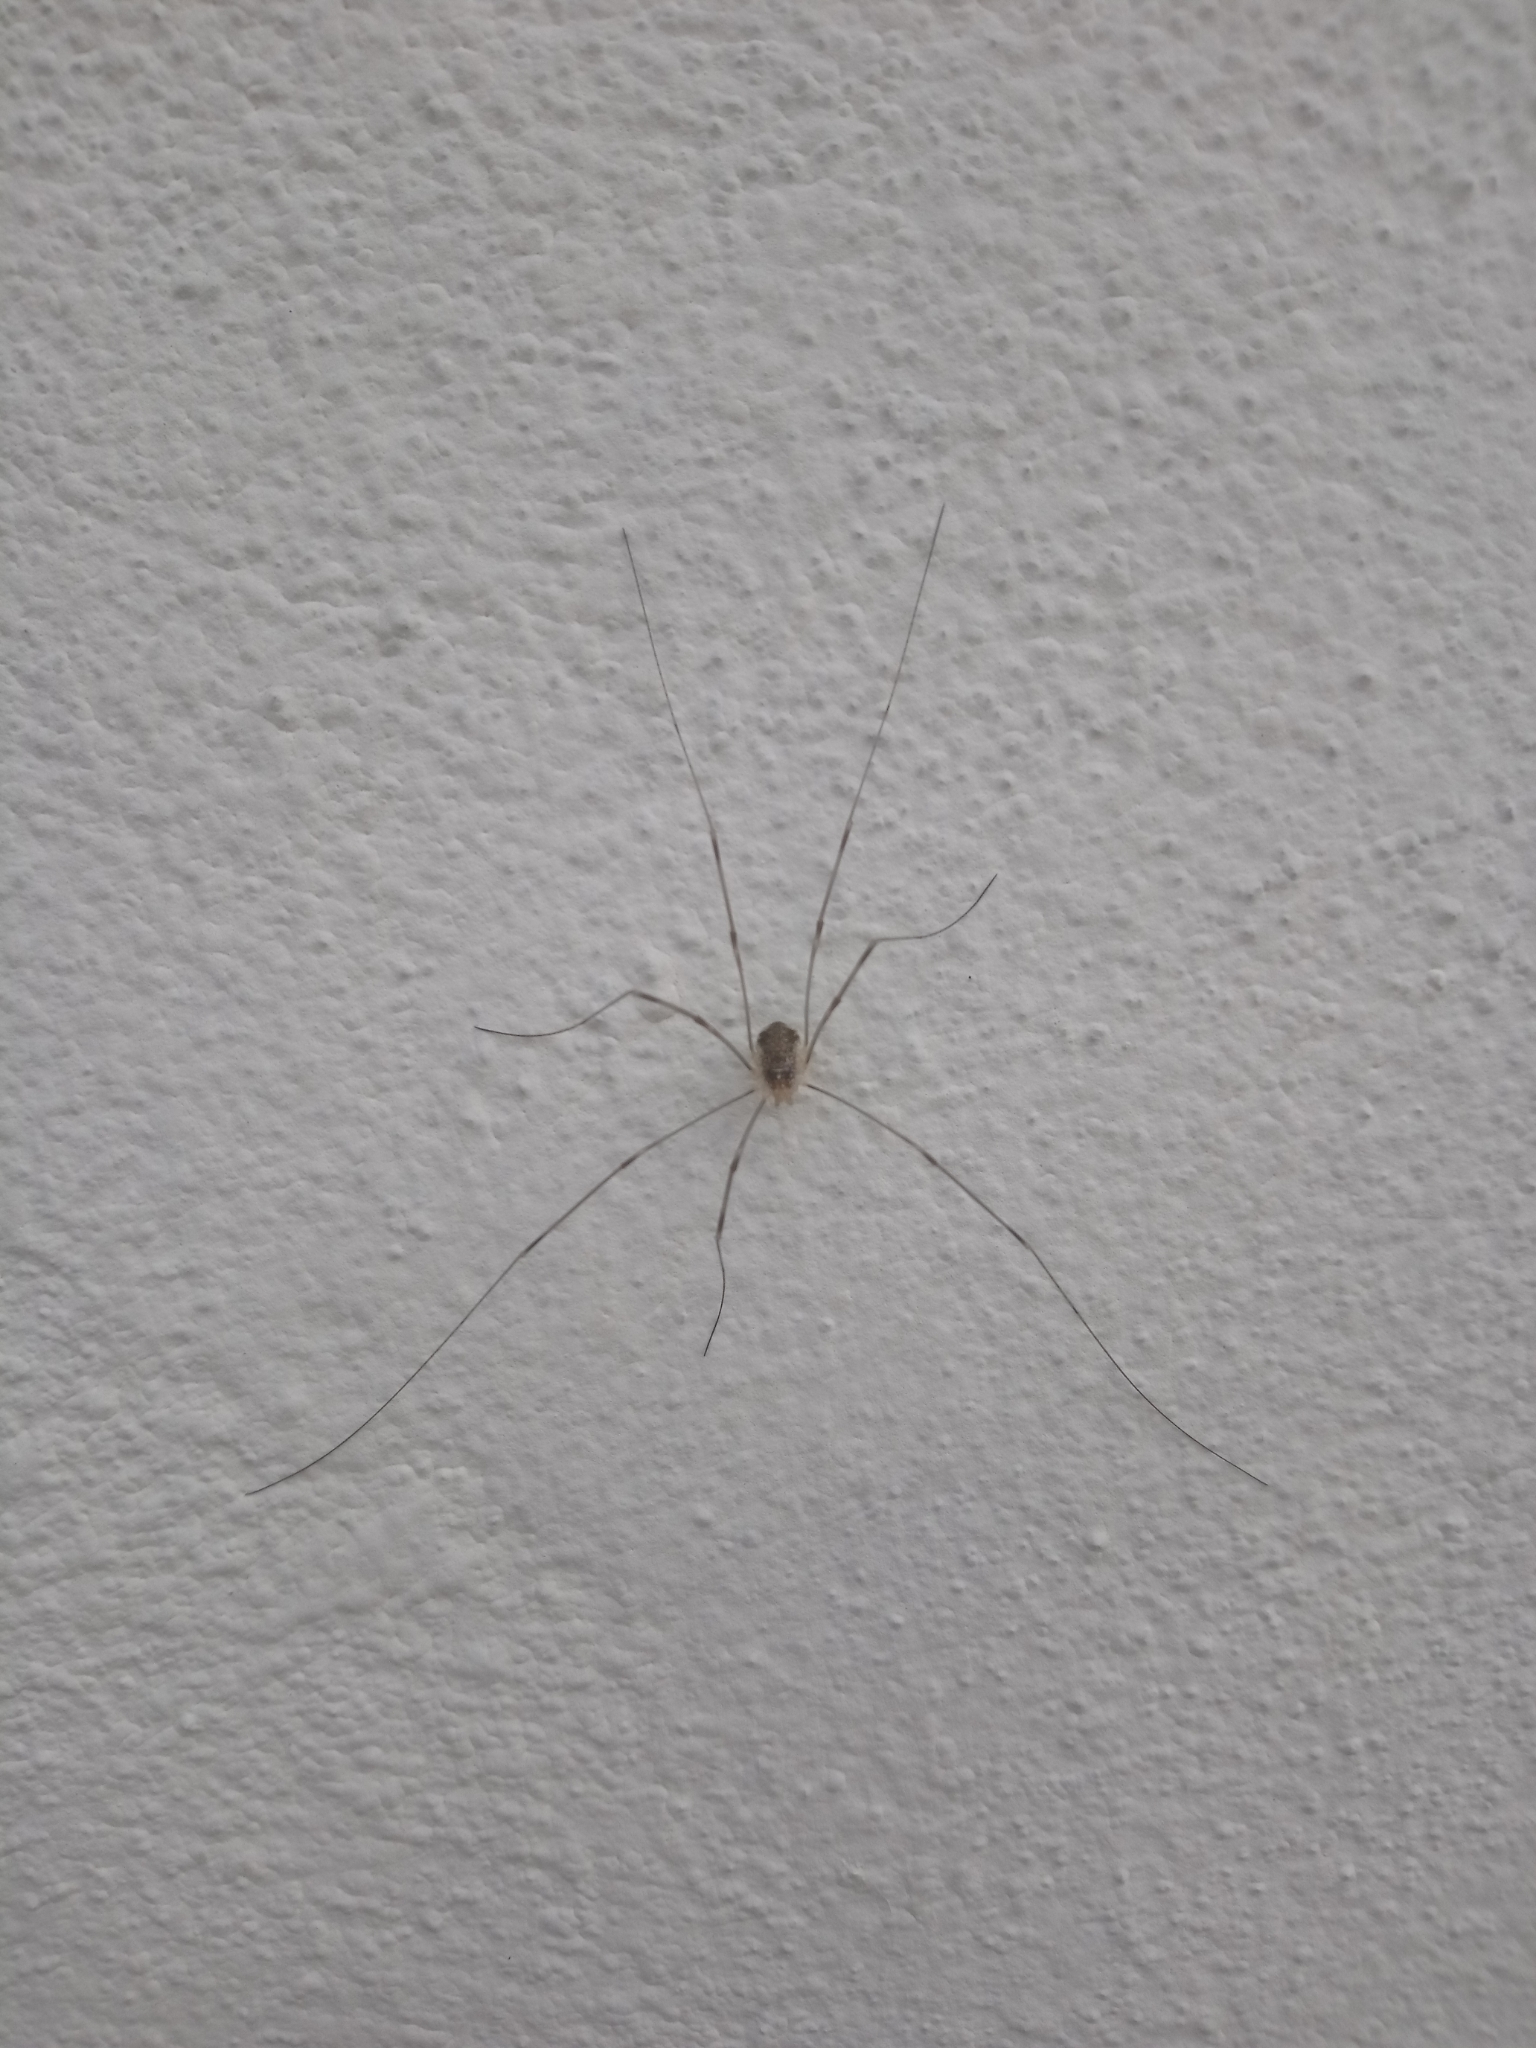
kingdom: Animalia
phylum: Arthropoda
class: Arachnida
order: Opiliones
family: Phalangiidae
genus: Opilio
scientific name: Opilio canestrinii
